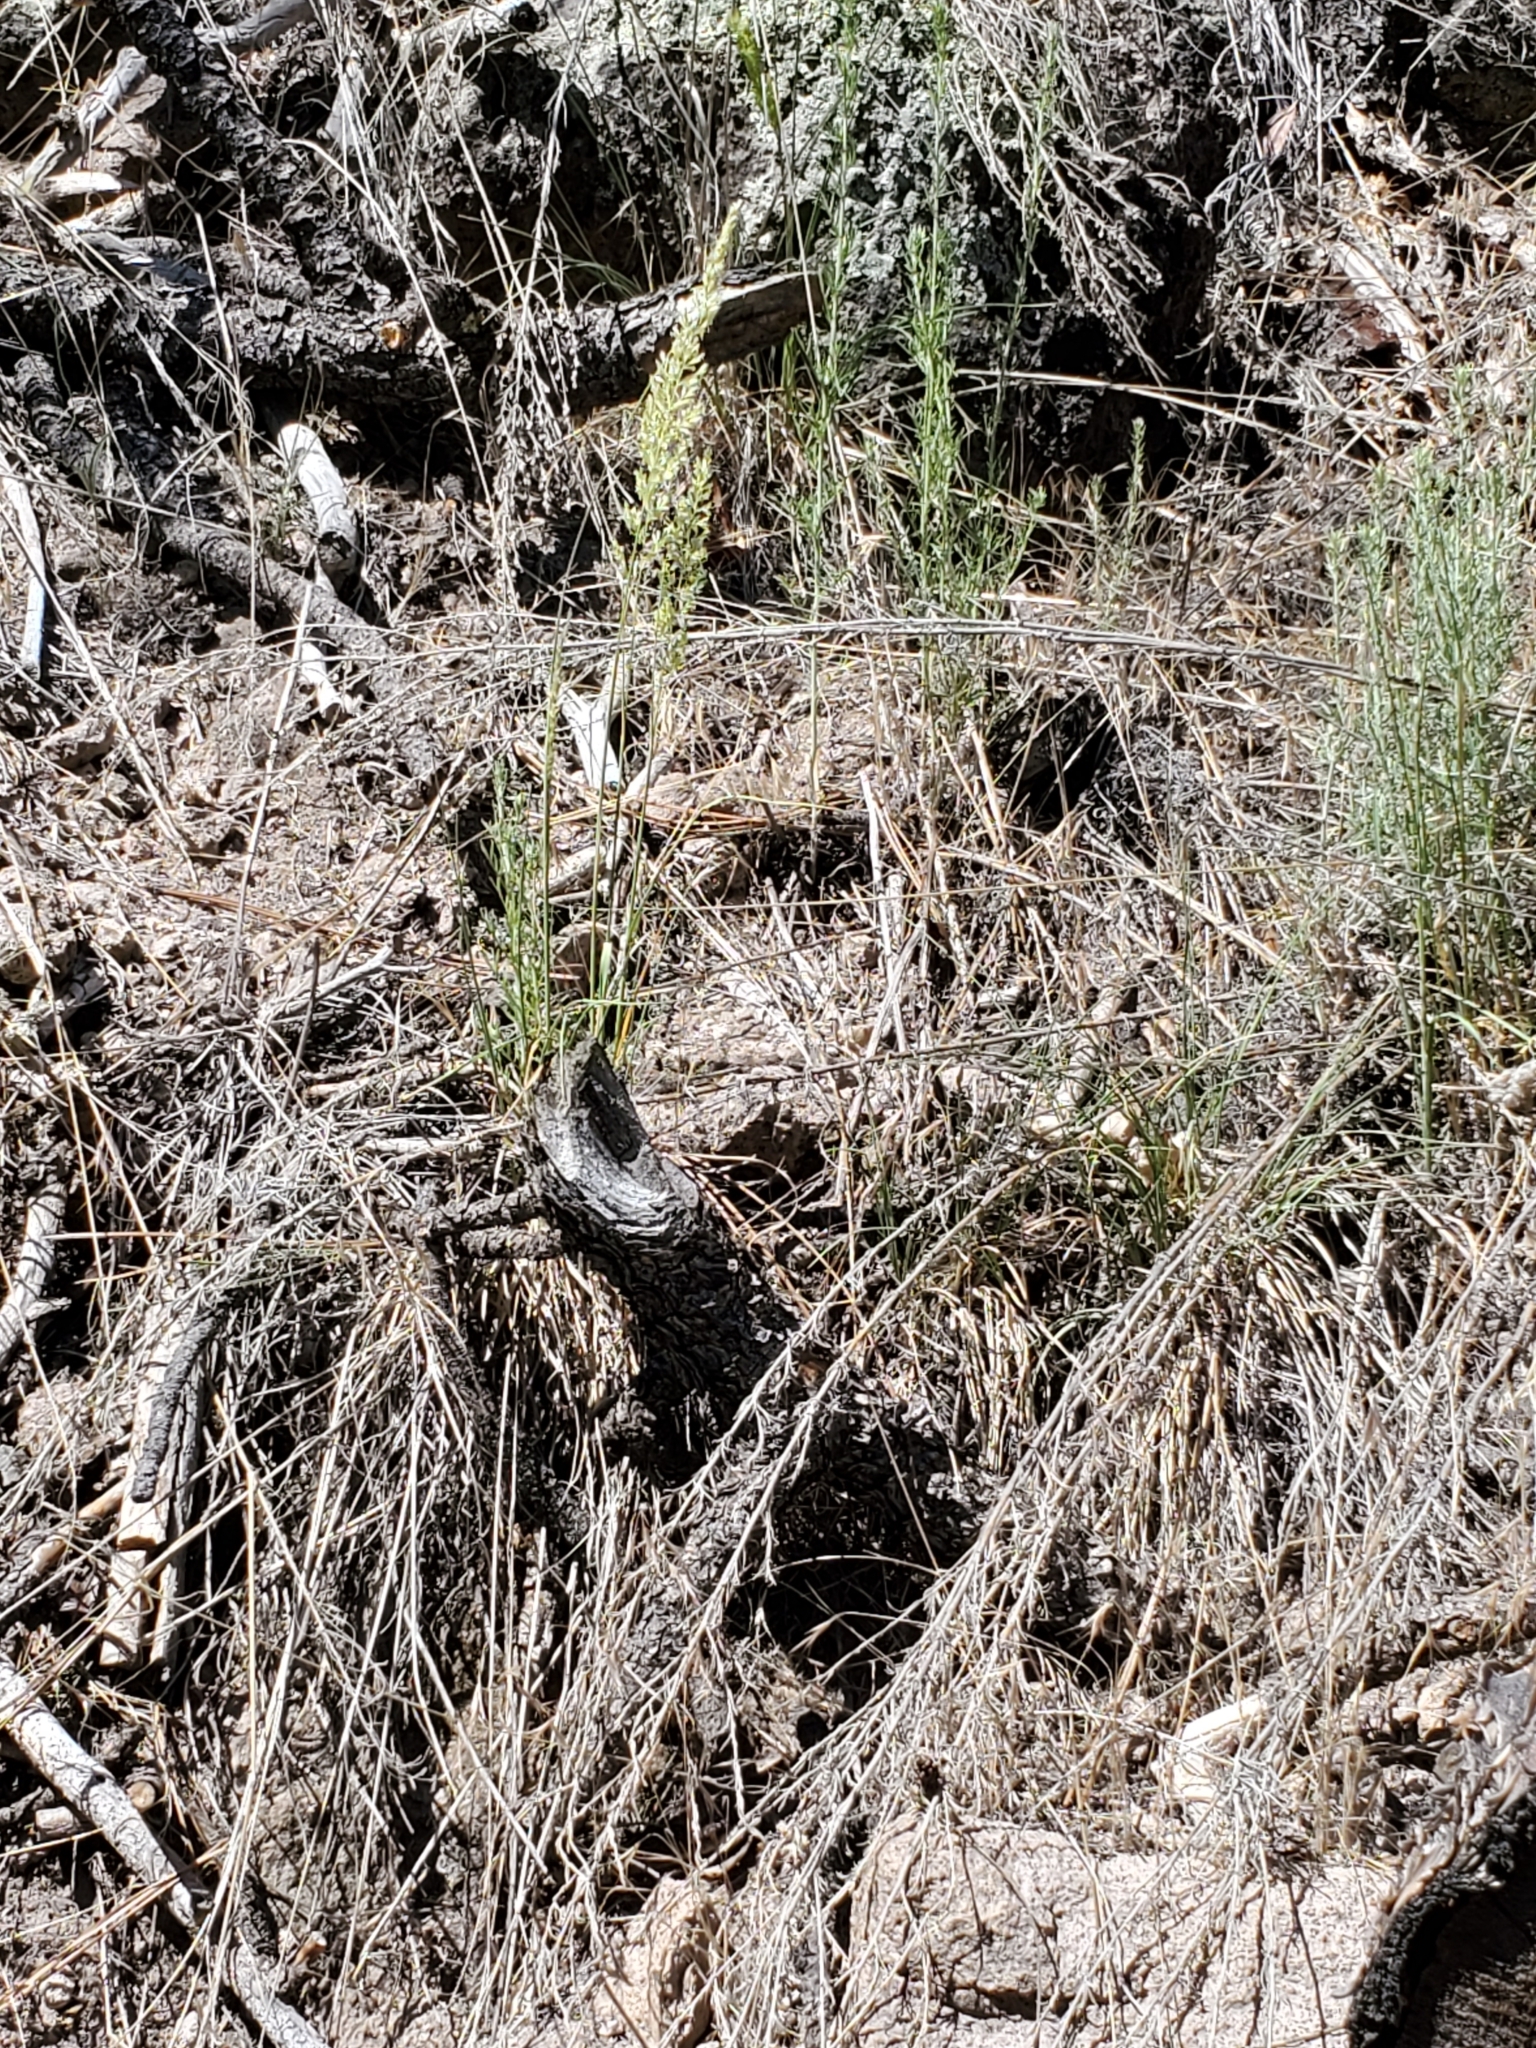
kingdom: Plantae
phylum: Tracheophyta
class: Liliopsida
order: Poales
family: Poaceae
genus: Koeleria
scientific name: Koeleria macrantha
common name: Crested hair-grass
